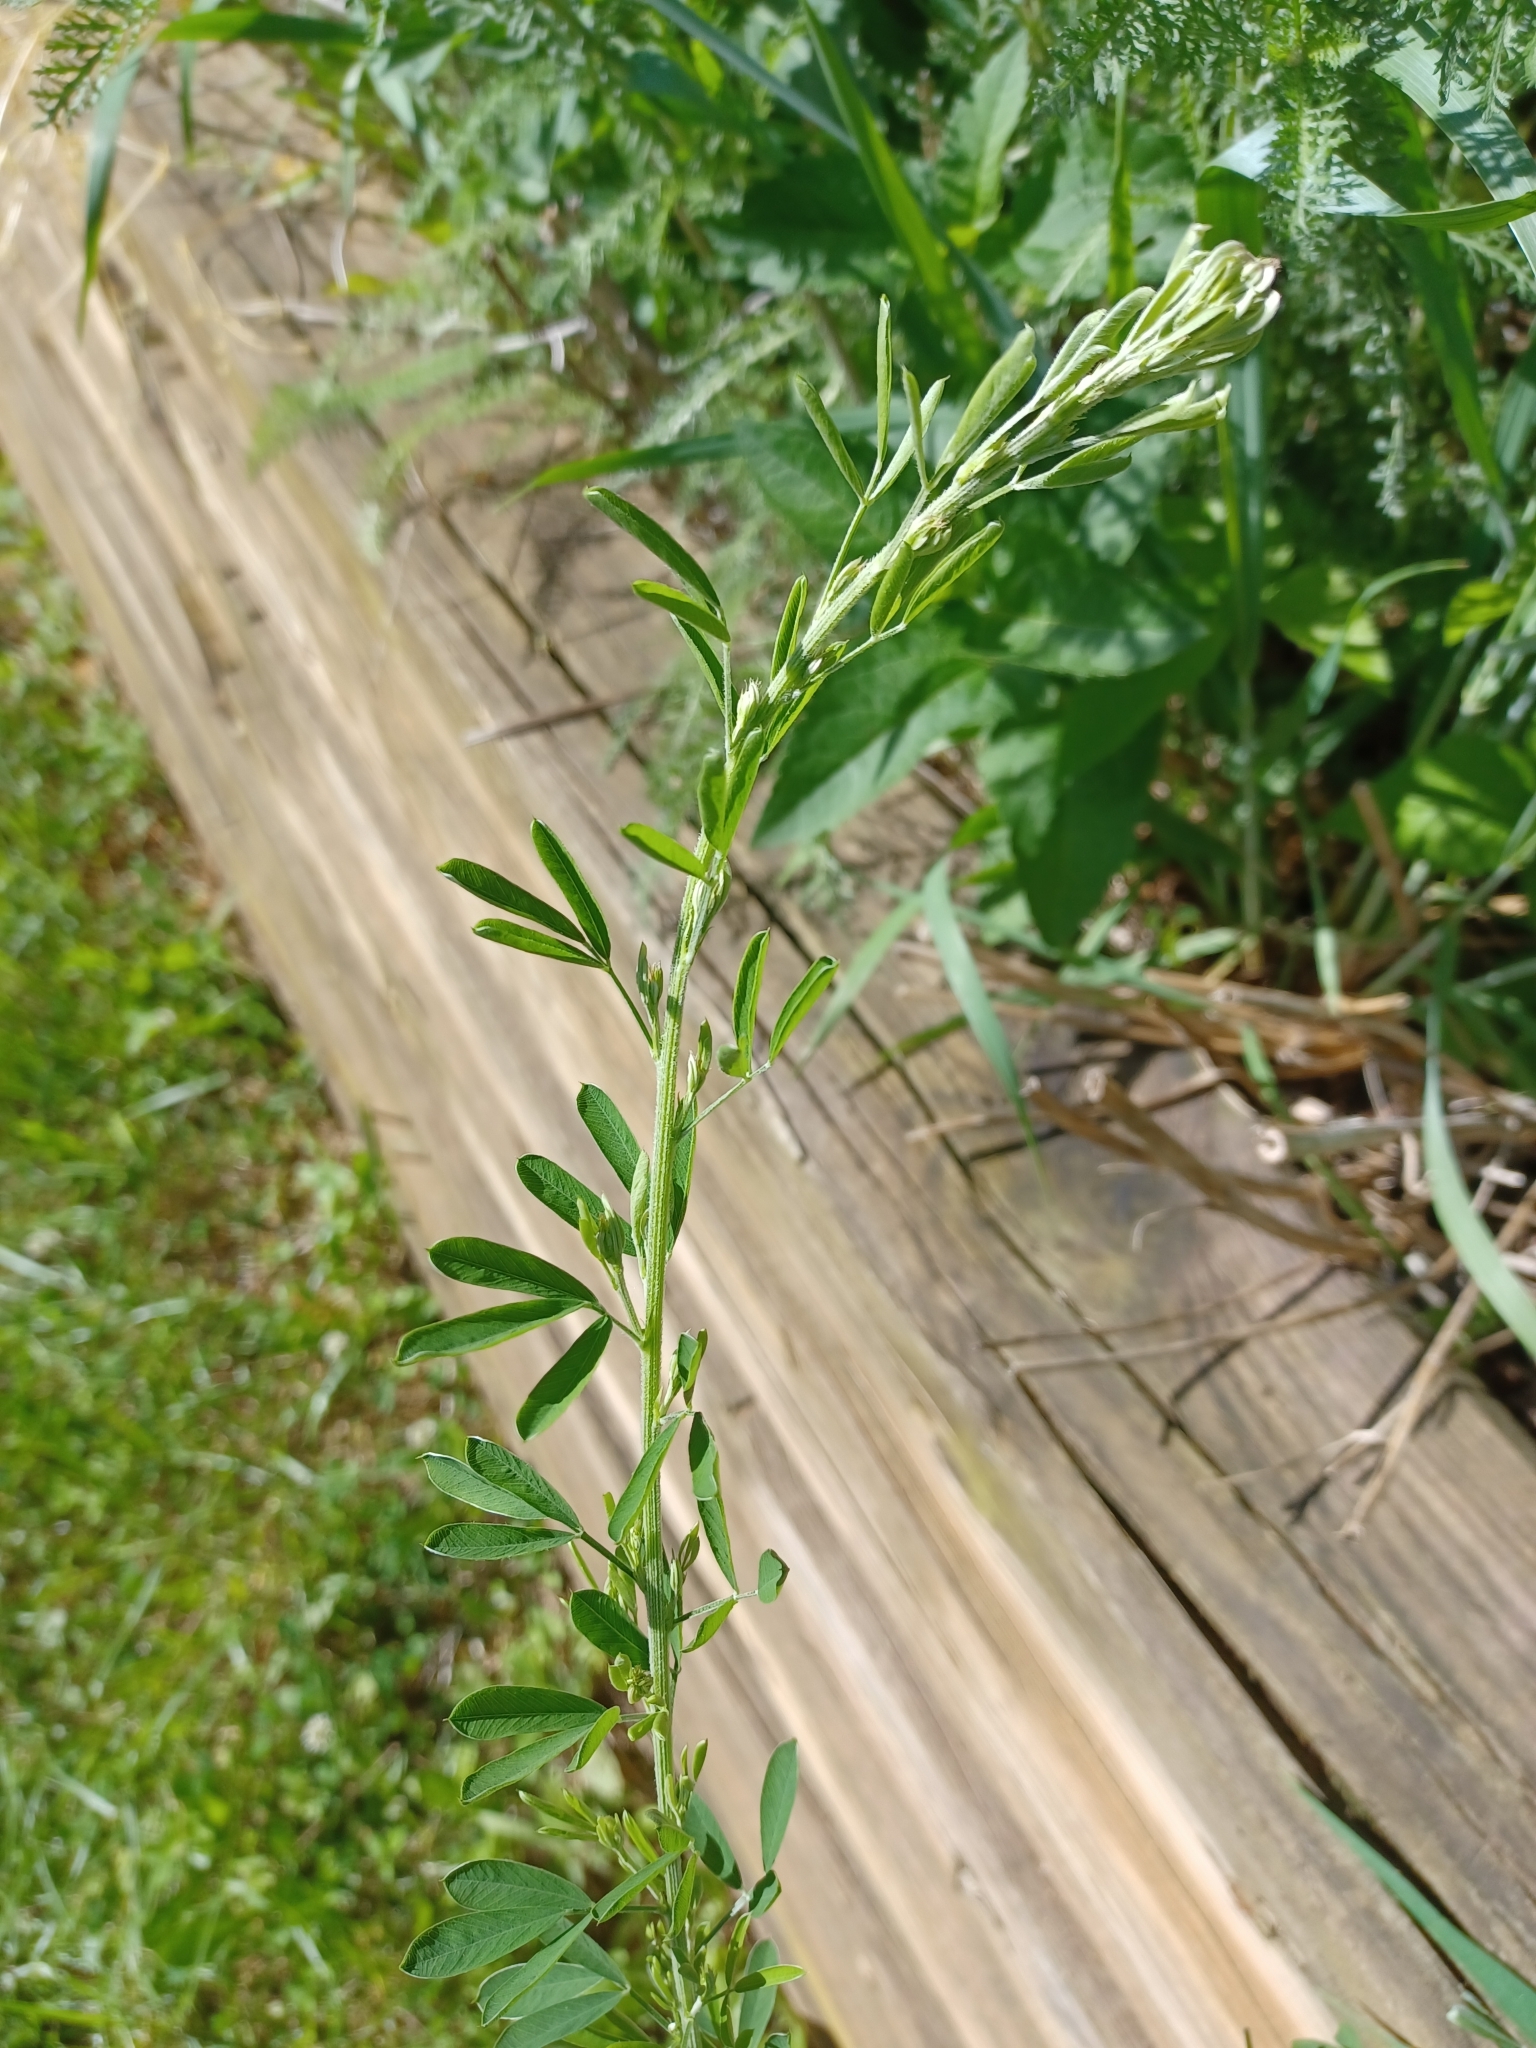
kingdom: Plantae
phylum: Tracheophyta
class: Magnoliopsida
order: Fabales
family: Fabaceae
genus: Lespedeza
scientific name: Lespedeza cuneata
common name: Chinese bush-clover
